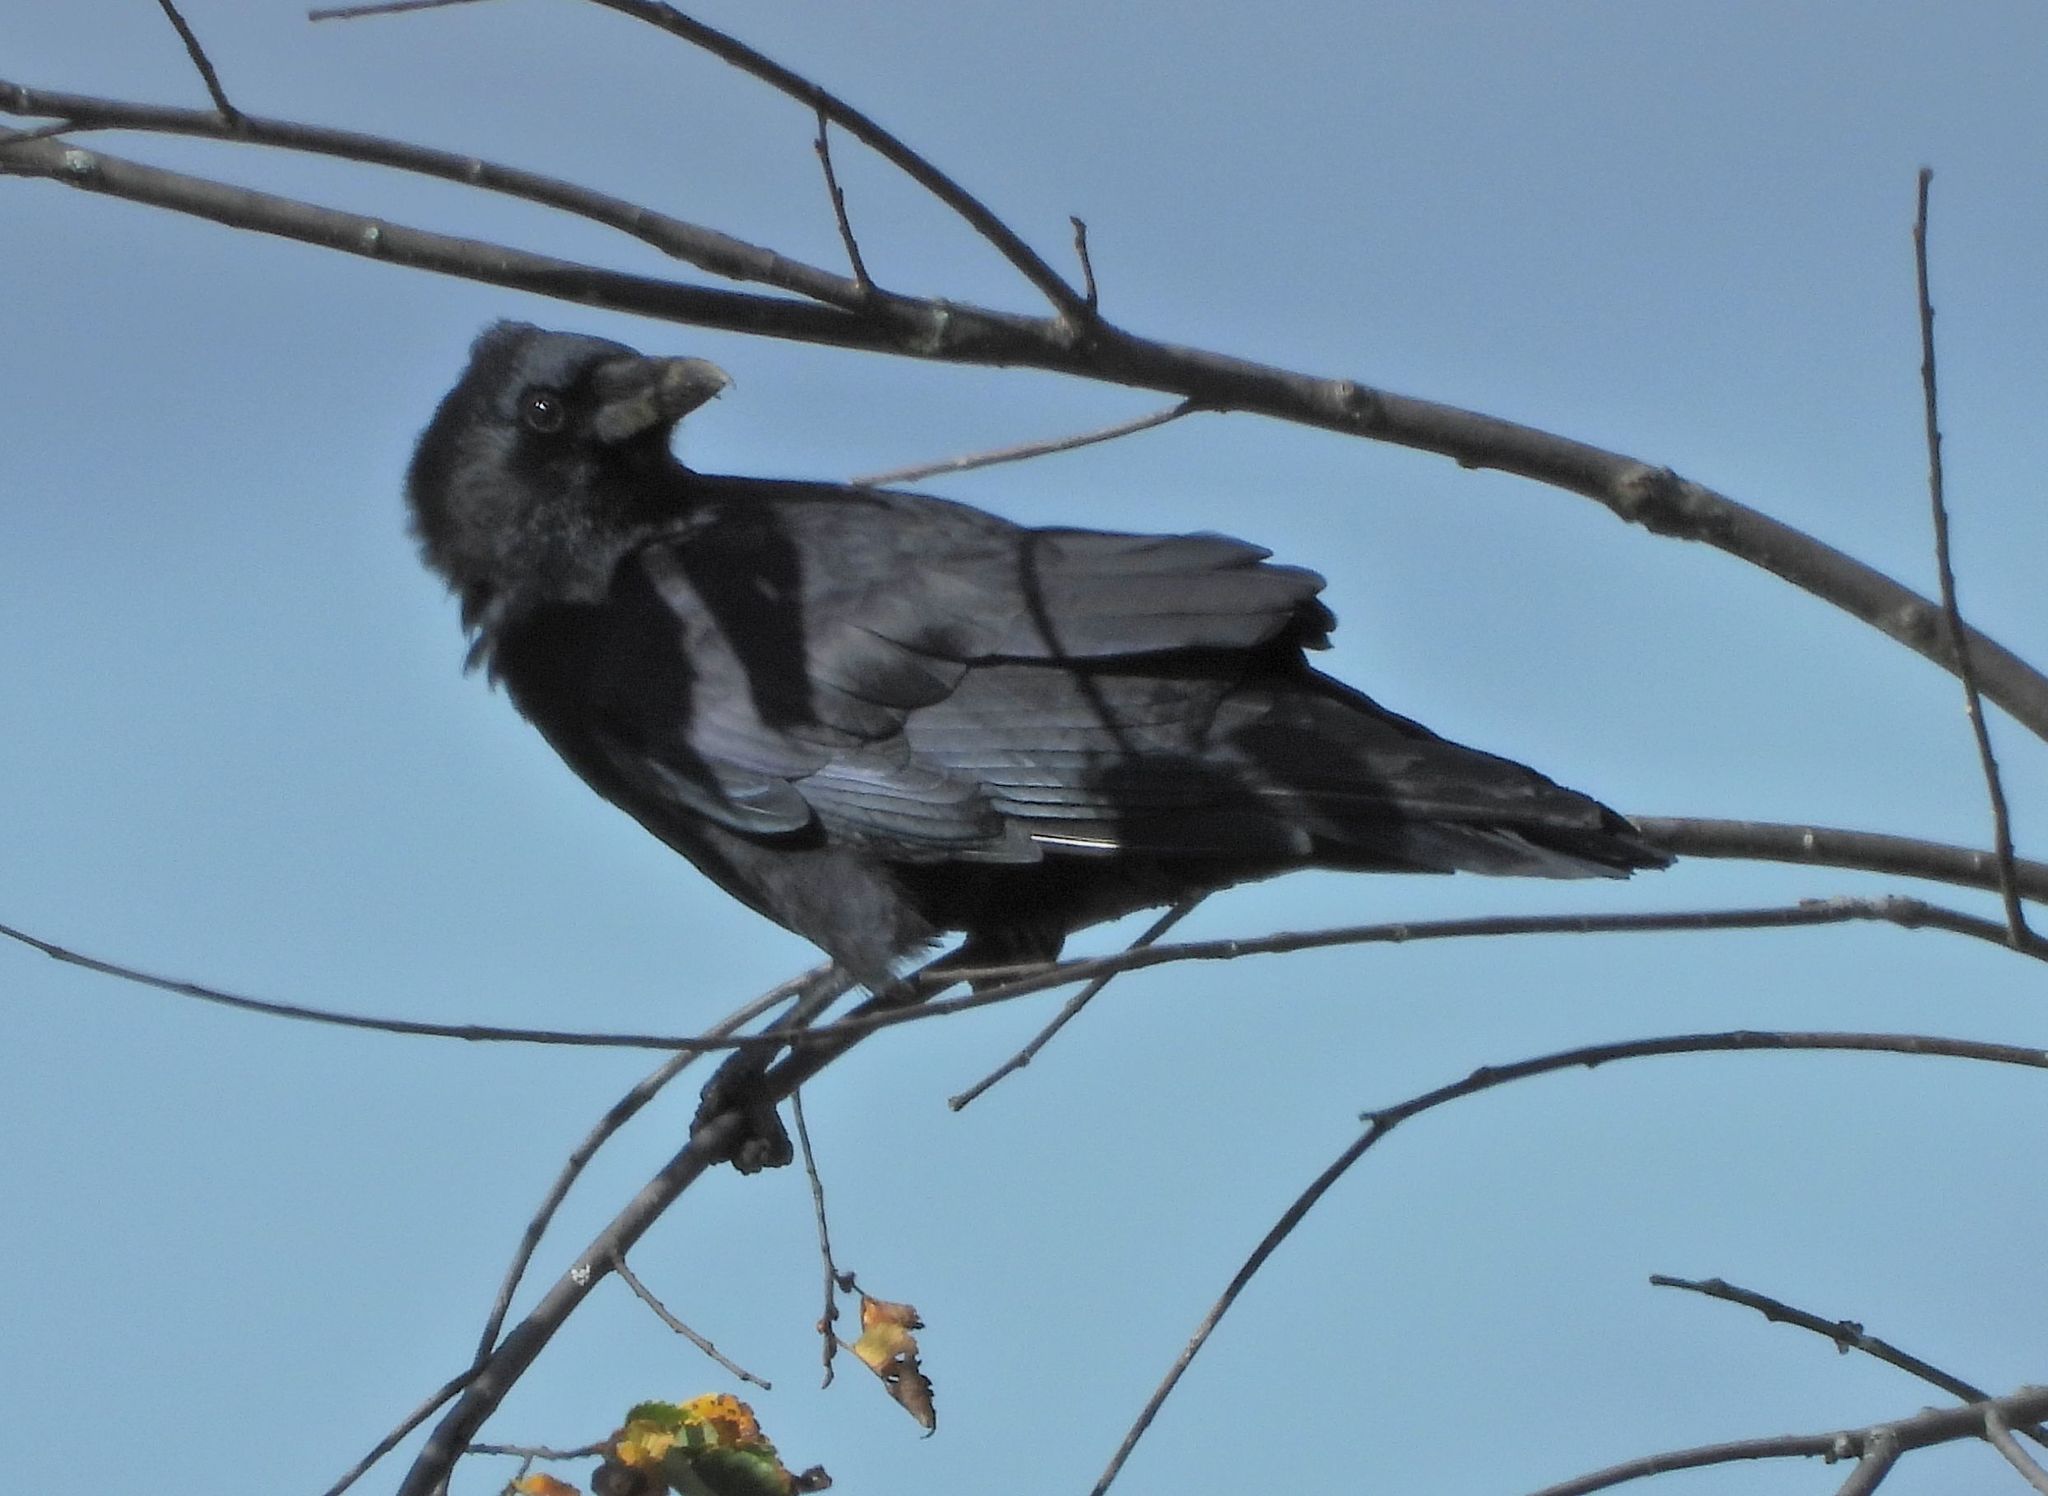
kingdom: Animalia
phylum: Chordata
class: Aves
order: Passeriformes
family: Corvidae
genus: Corvus
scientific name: Corvus brachyrhynchos
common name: American crow
